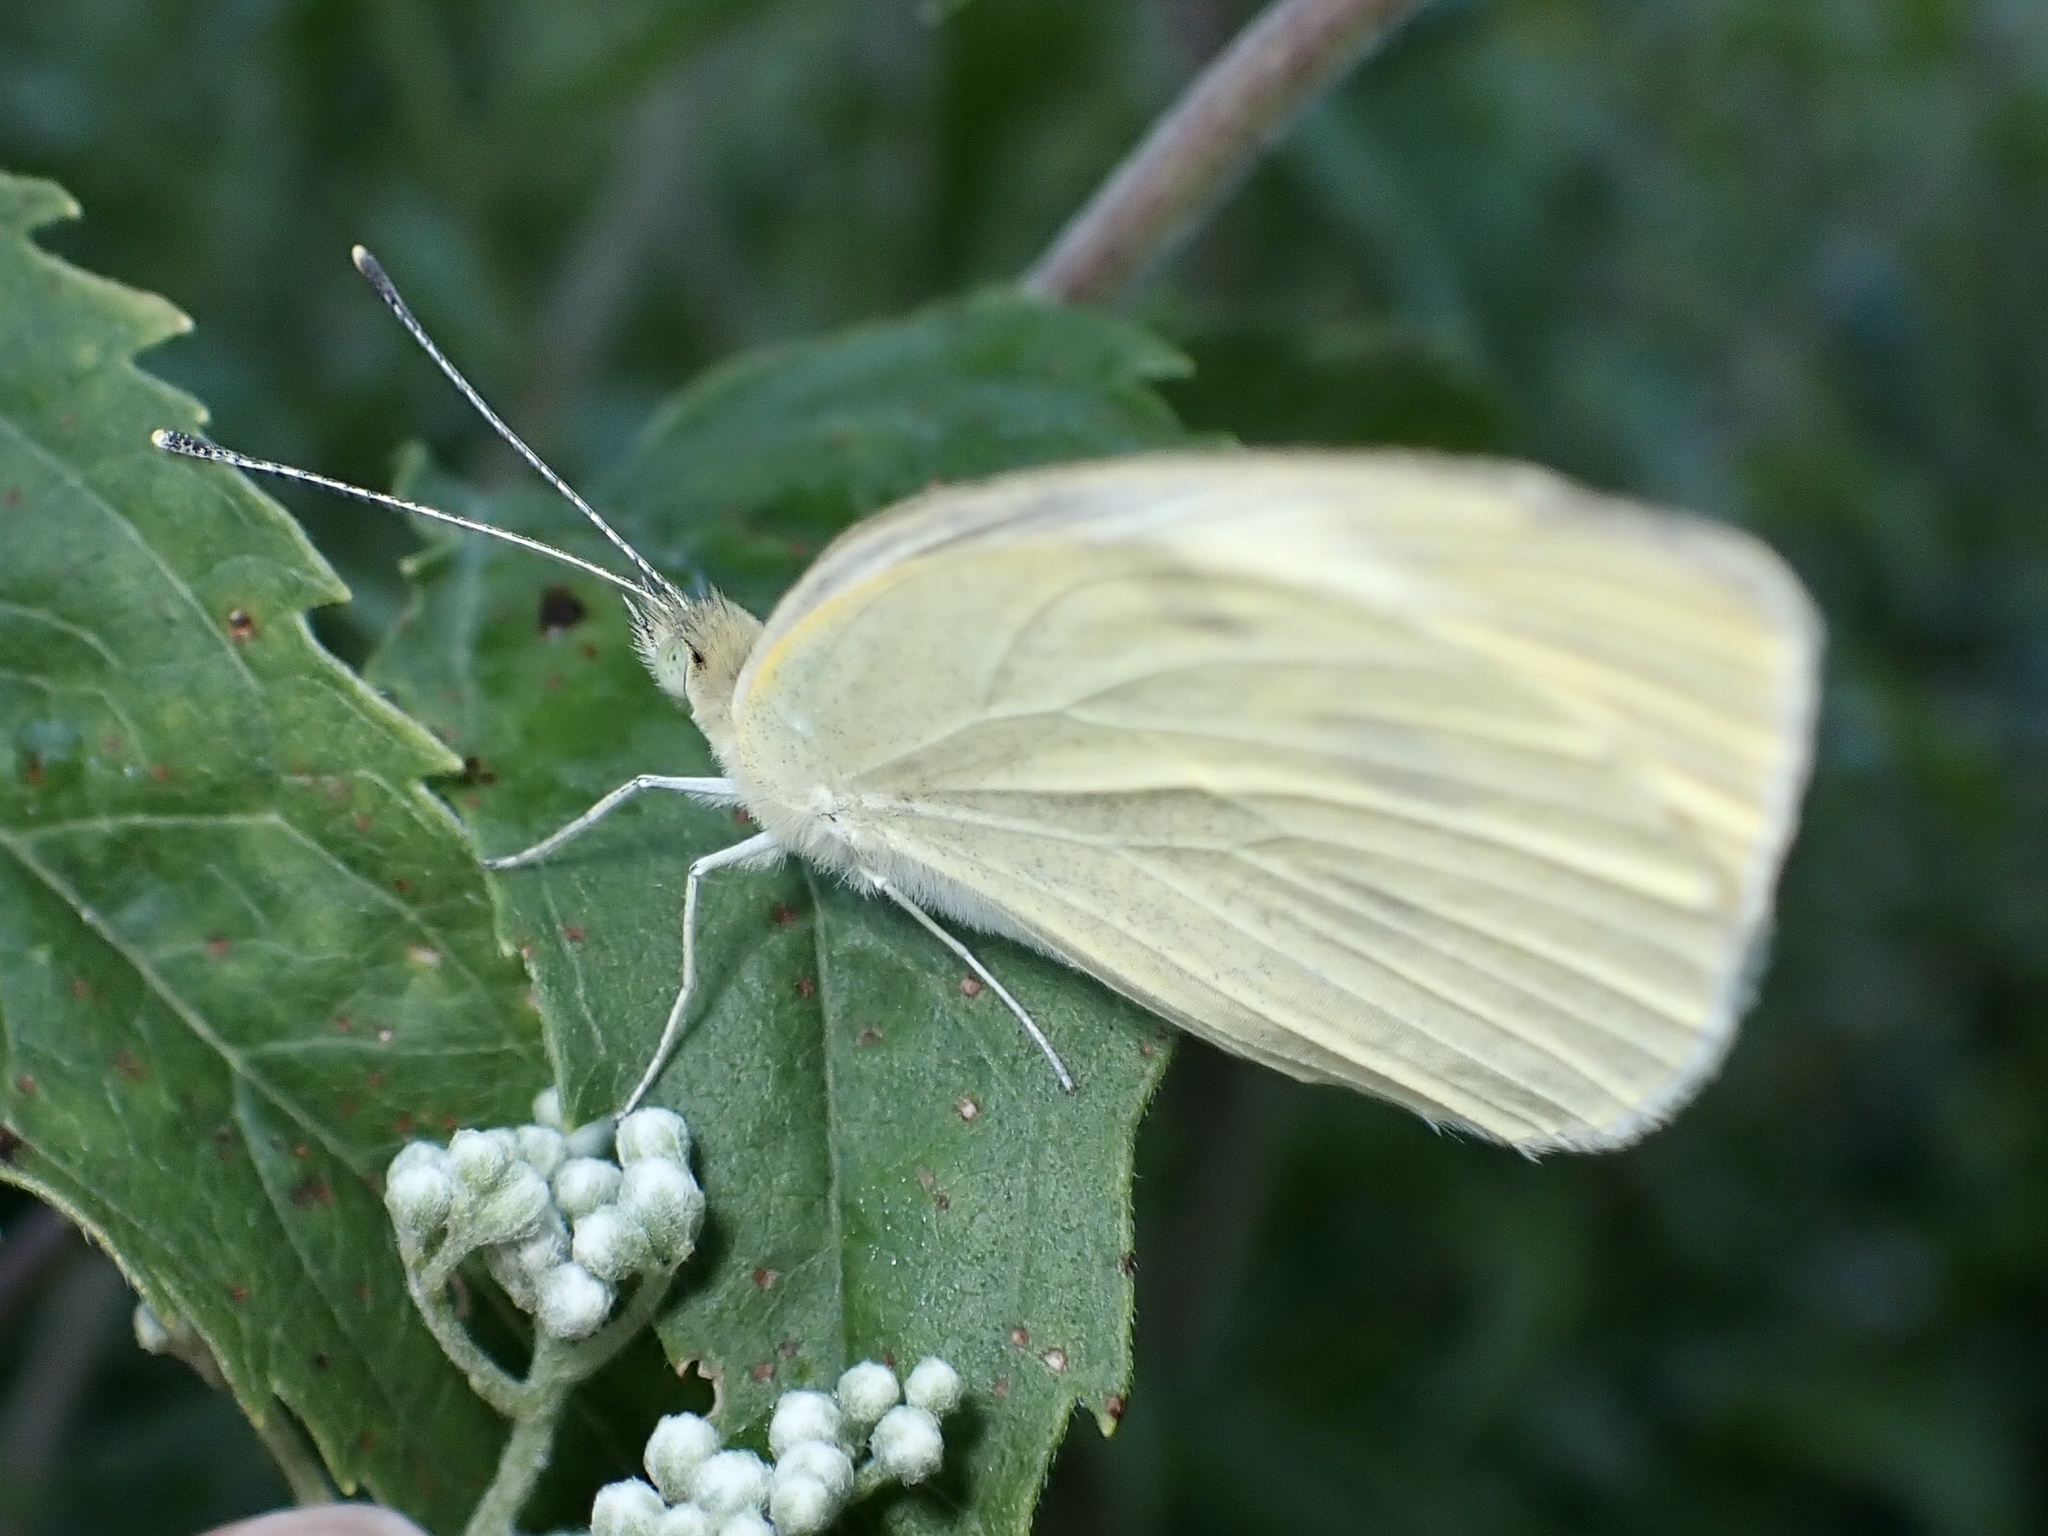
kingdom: Animalia
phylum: Arthropoda
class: Insecta
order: Lepidoptera
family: Pieridae
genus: Pieris
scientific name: Pieris rapae
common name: Small white
